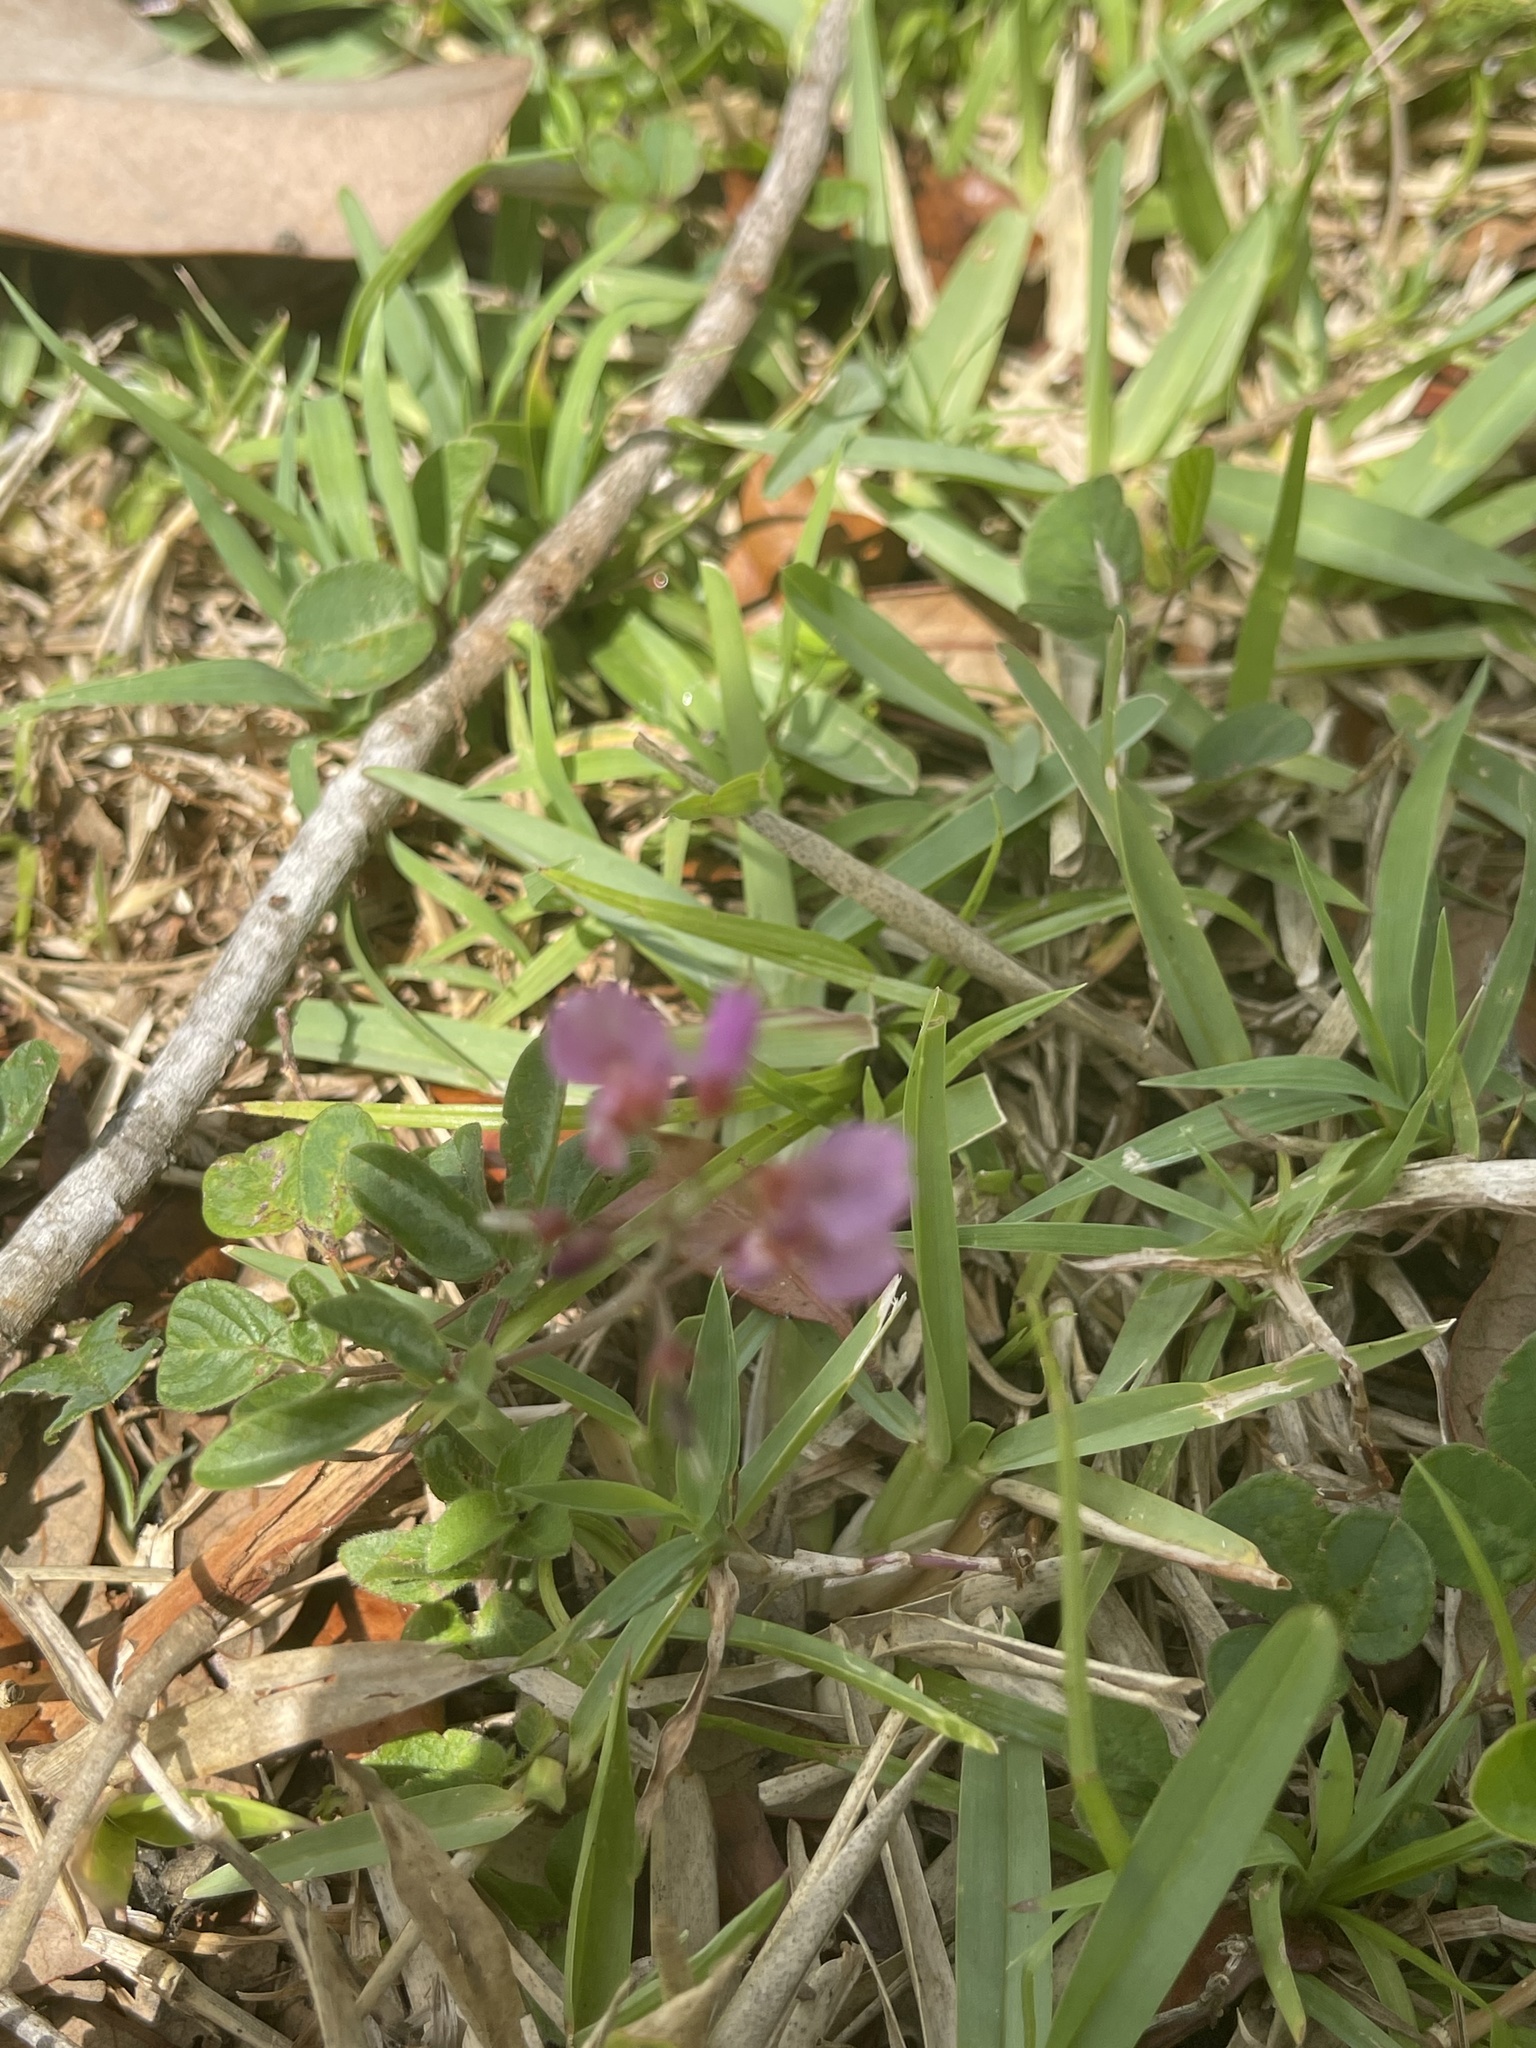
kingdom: Plantae
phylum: Tracheophyta
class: Magnoliopsida
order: Fabales
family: Fabaceae
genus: Desmodium
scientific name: Desmodium incanum
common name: Tickclover
